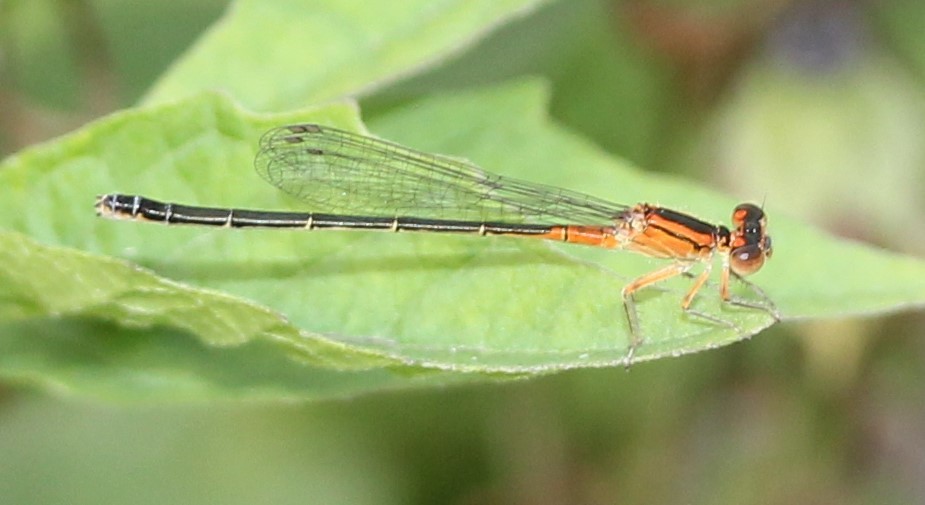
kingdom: Animalia
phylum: Arthropoda
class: Insecta
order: Odonata
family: Coenagrionidae
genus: Ischnura
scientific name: Ischnura verticalis
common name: Eastern forktail
